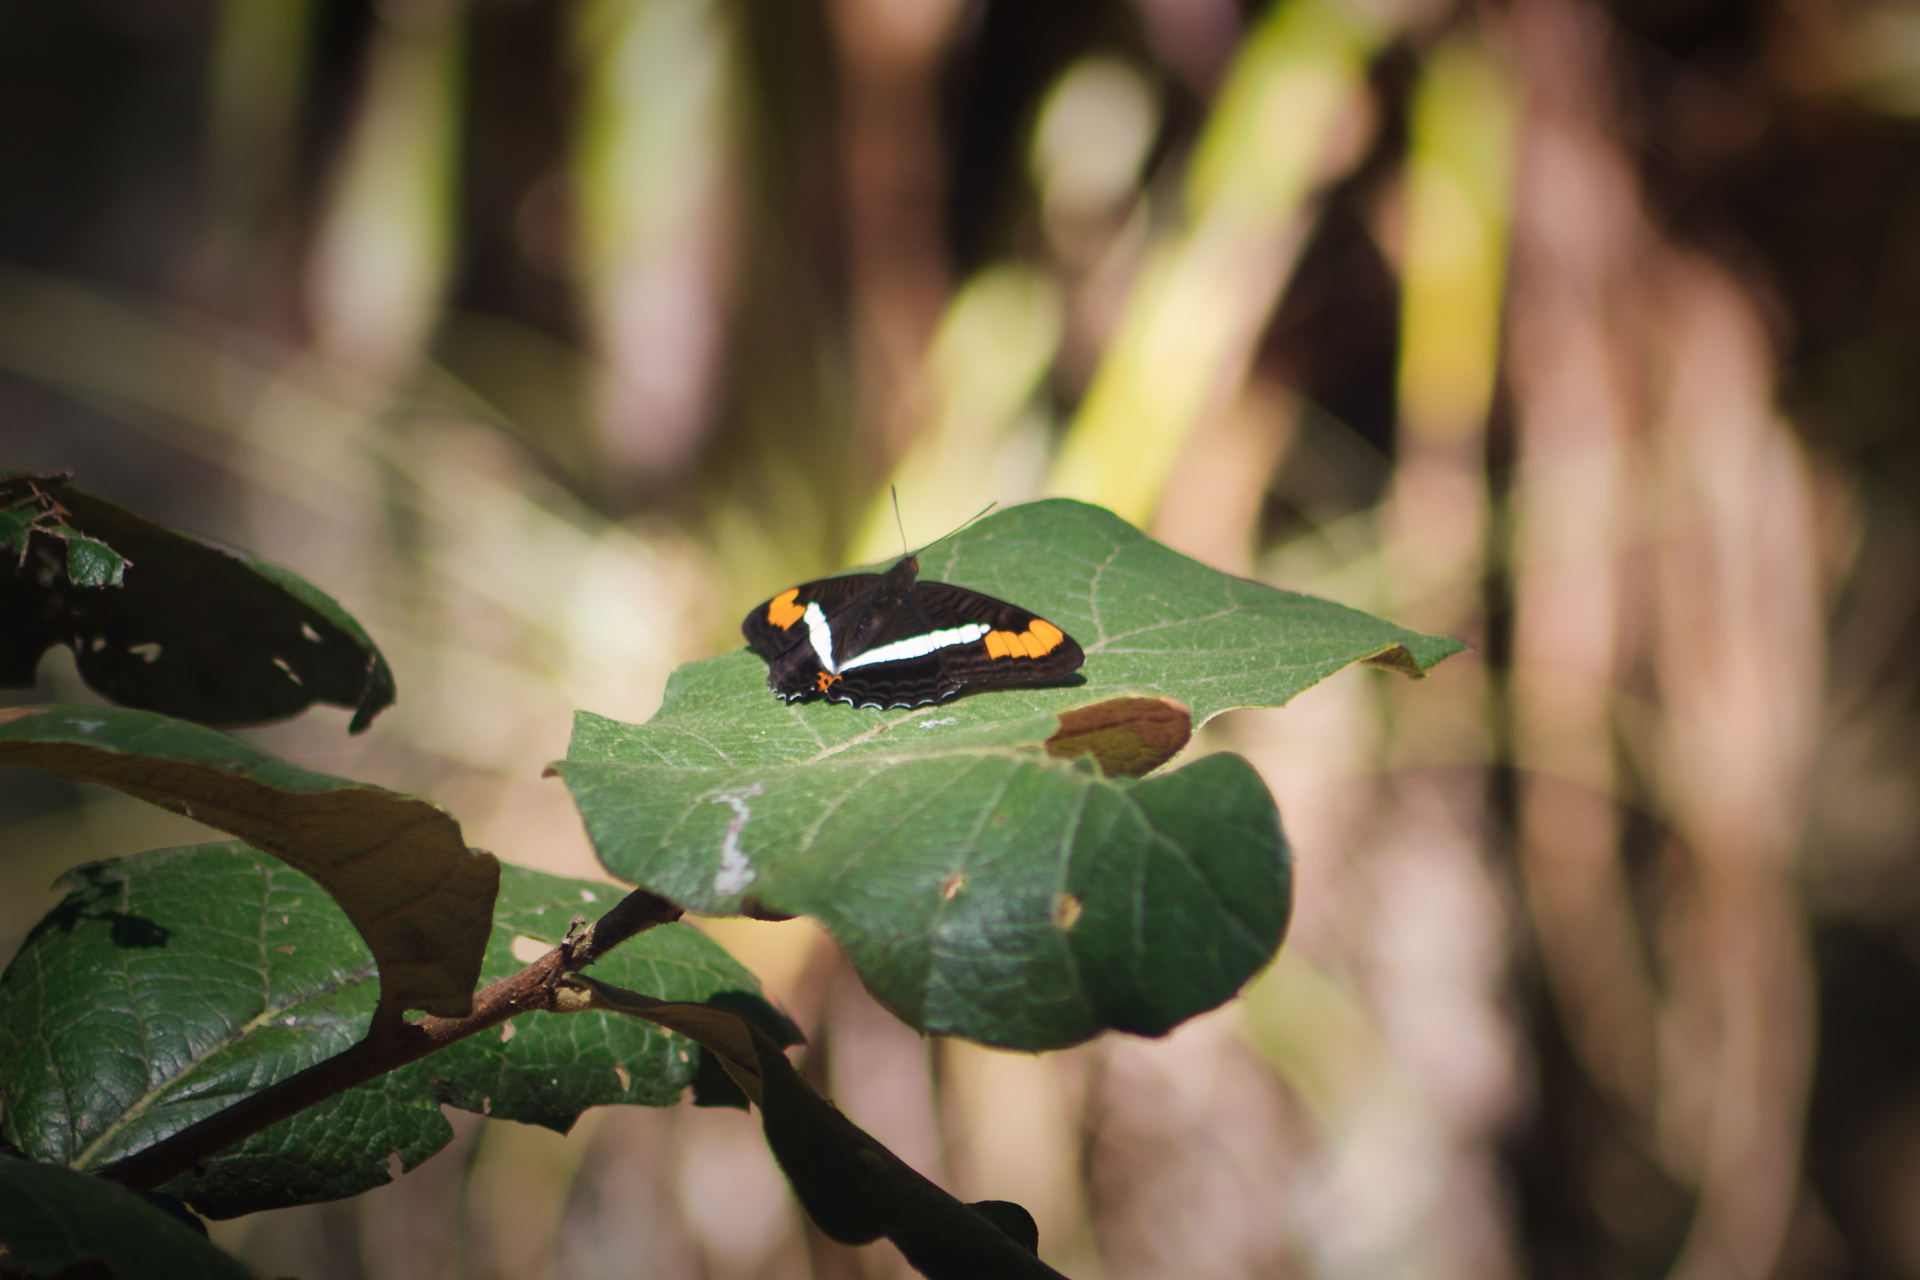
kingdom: Animalia
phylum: Arthropoda
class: Insecta
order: Lepidoptera
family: Nymphalidae
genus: Limenitis
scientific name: Limenitis pithys
